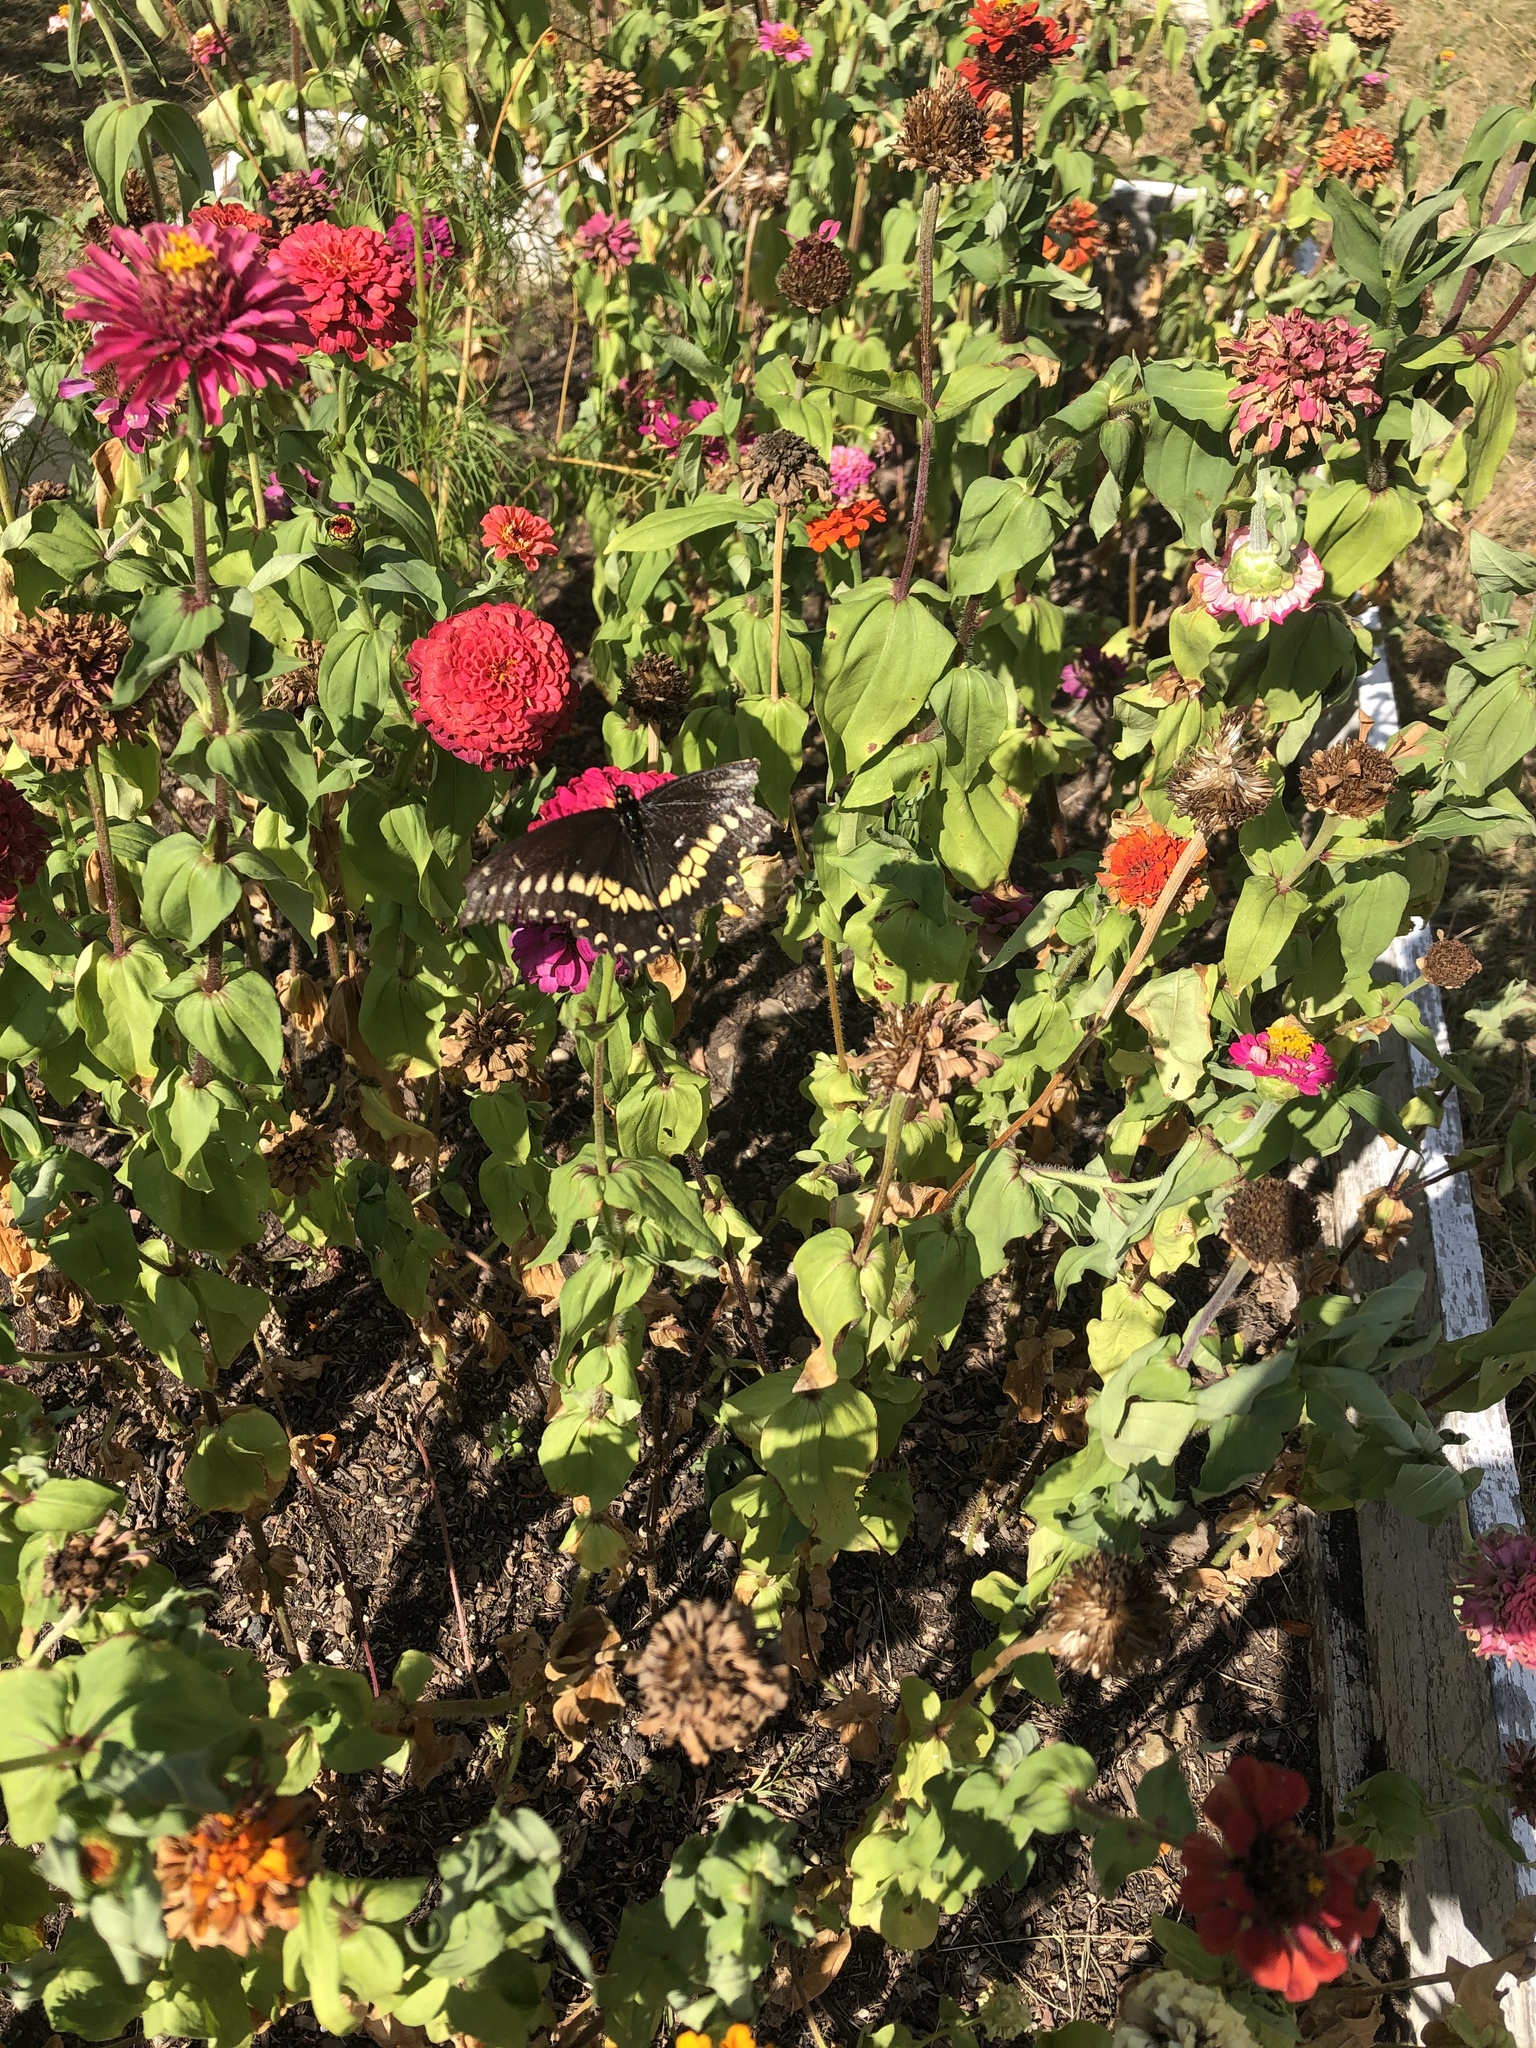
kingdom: Animalia
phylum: Arthropoda
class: Insecta
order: Lepidoptera
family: Papilionidae
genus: Papilio
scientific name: Papilio polyxenes
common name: Black swallowtail
